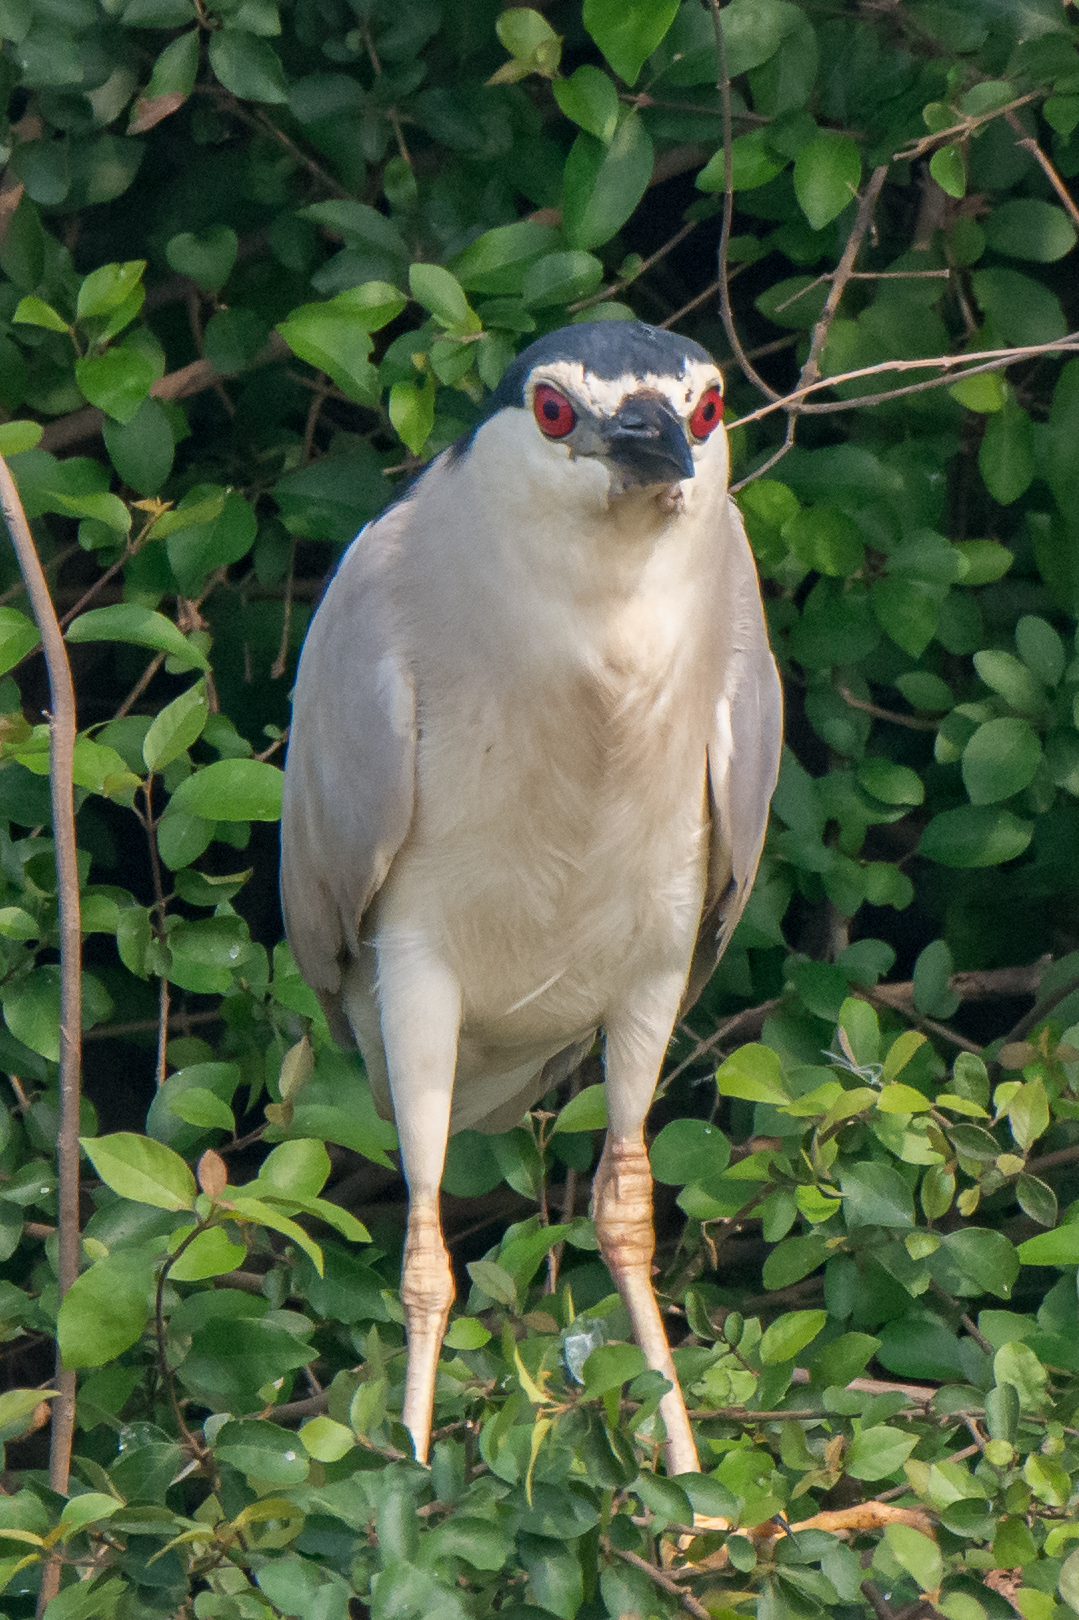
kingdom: Animalia
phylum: Chordata
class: Aves
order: Pelecaniformes
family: Ardeidae
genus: Nycticorax
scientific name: Nycticorax nycticorax
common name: Black-crowned night heron
